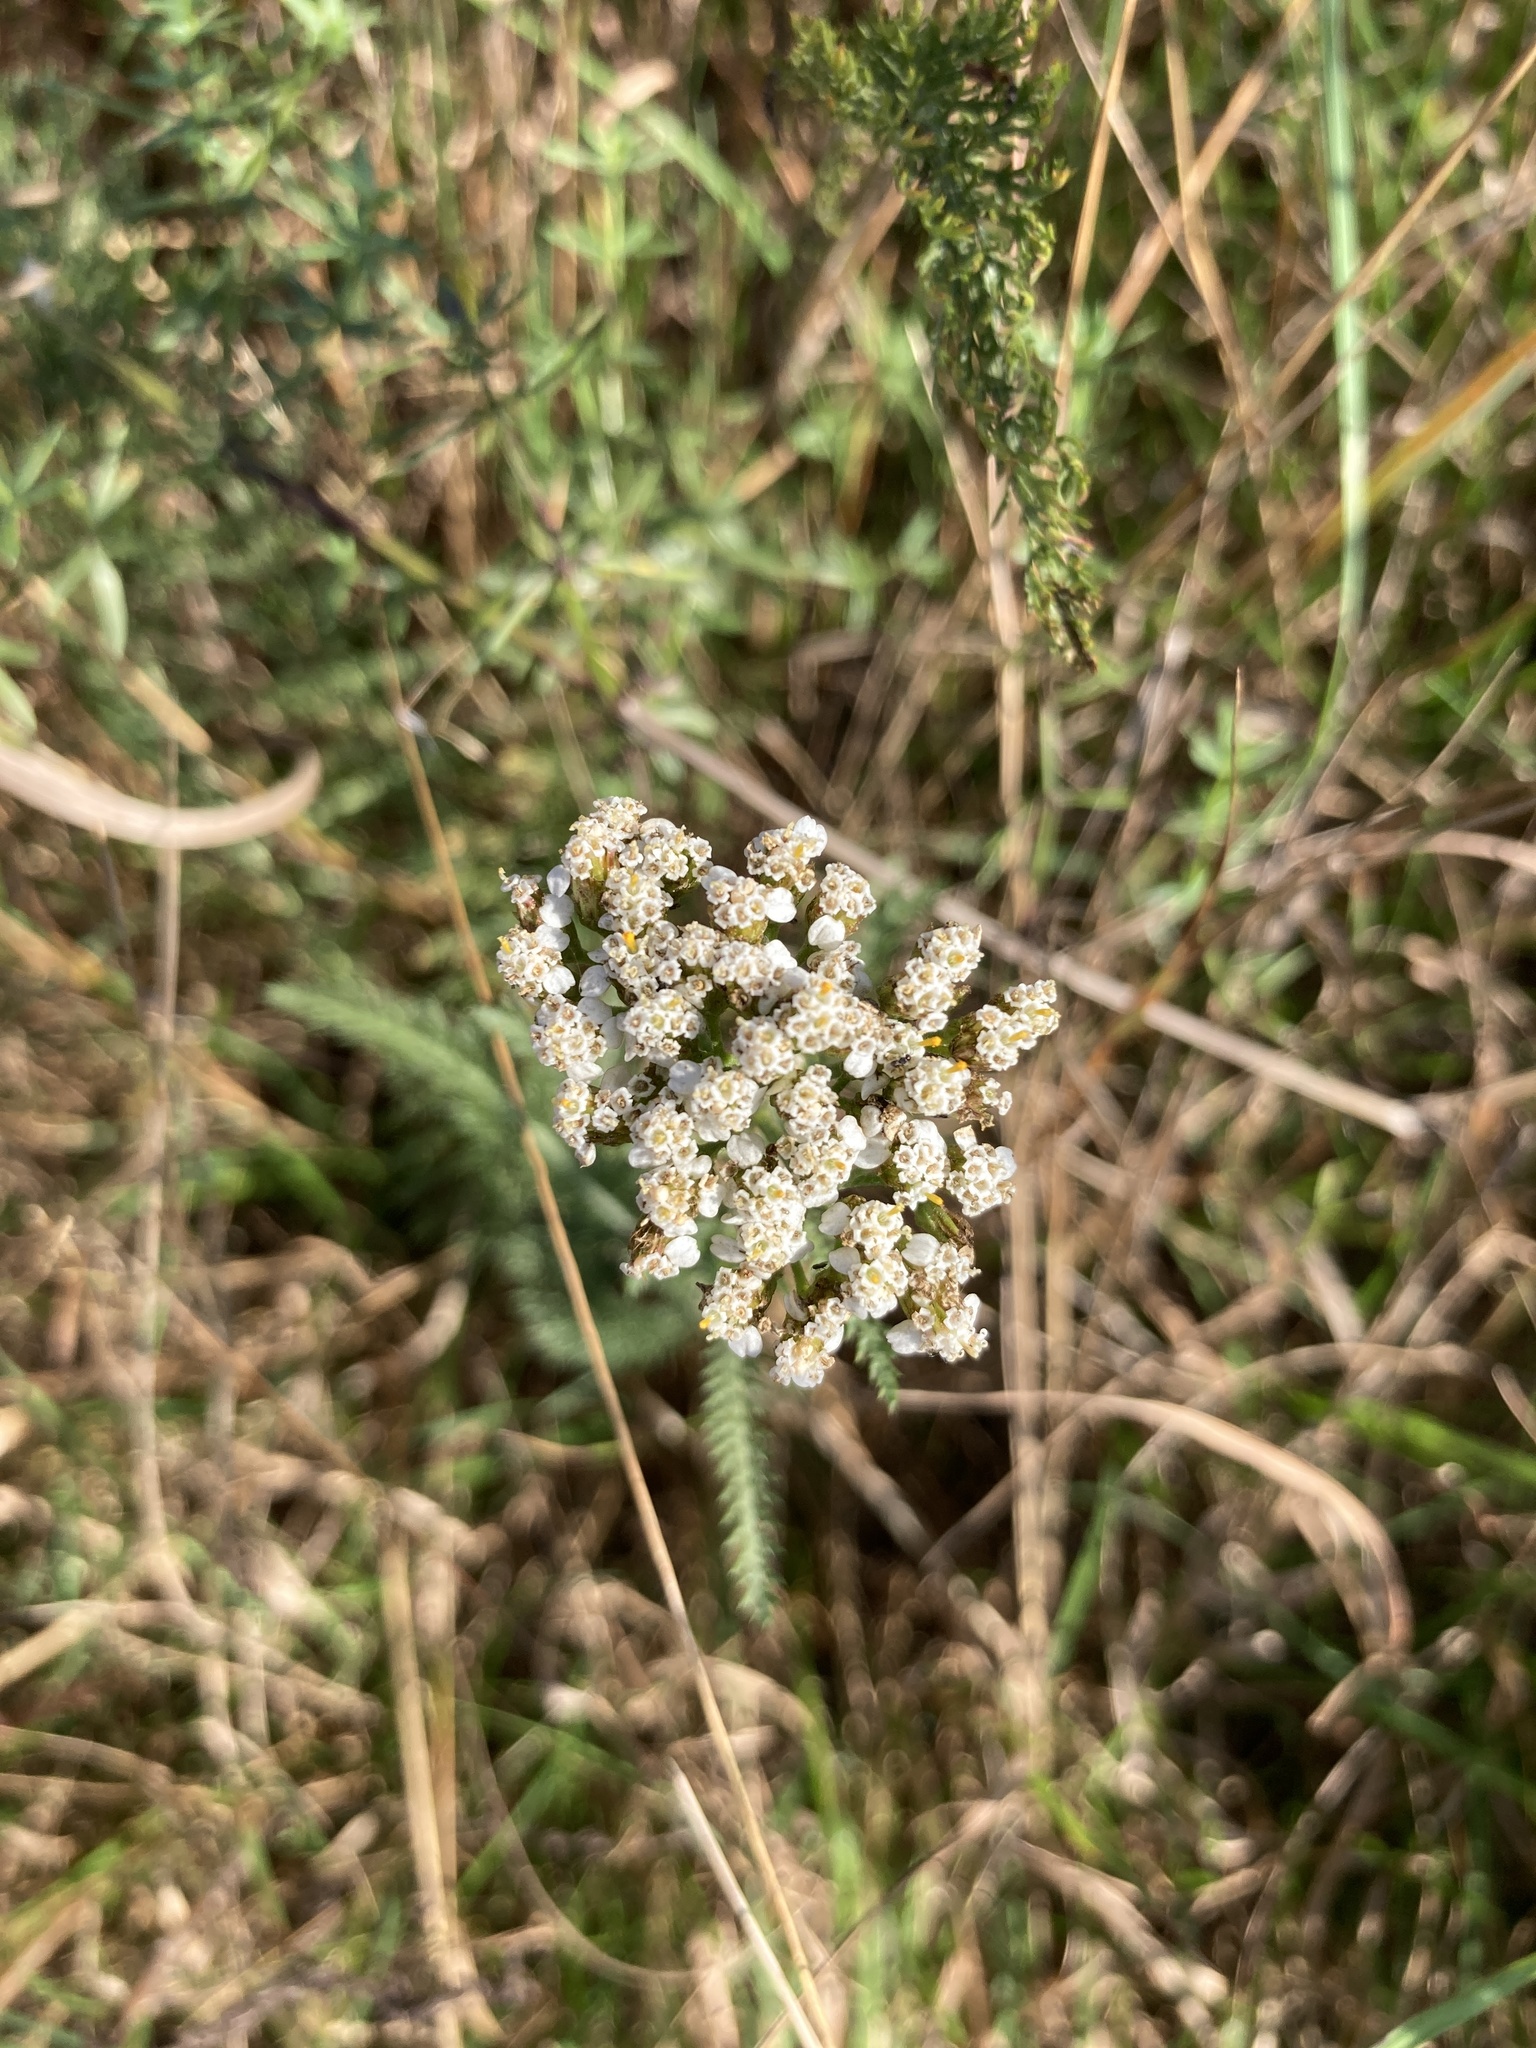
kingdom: Plantae
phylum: Tracheophyta
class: Magnoliopsida
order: Asterales
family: Asteraceae
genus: Achillea
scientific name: Achillea millefolium
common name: Yarrow
